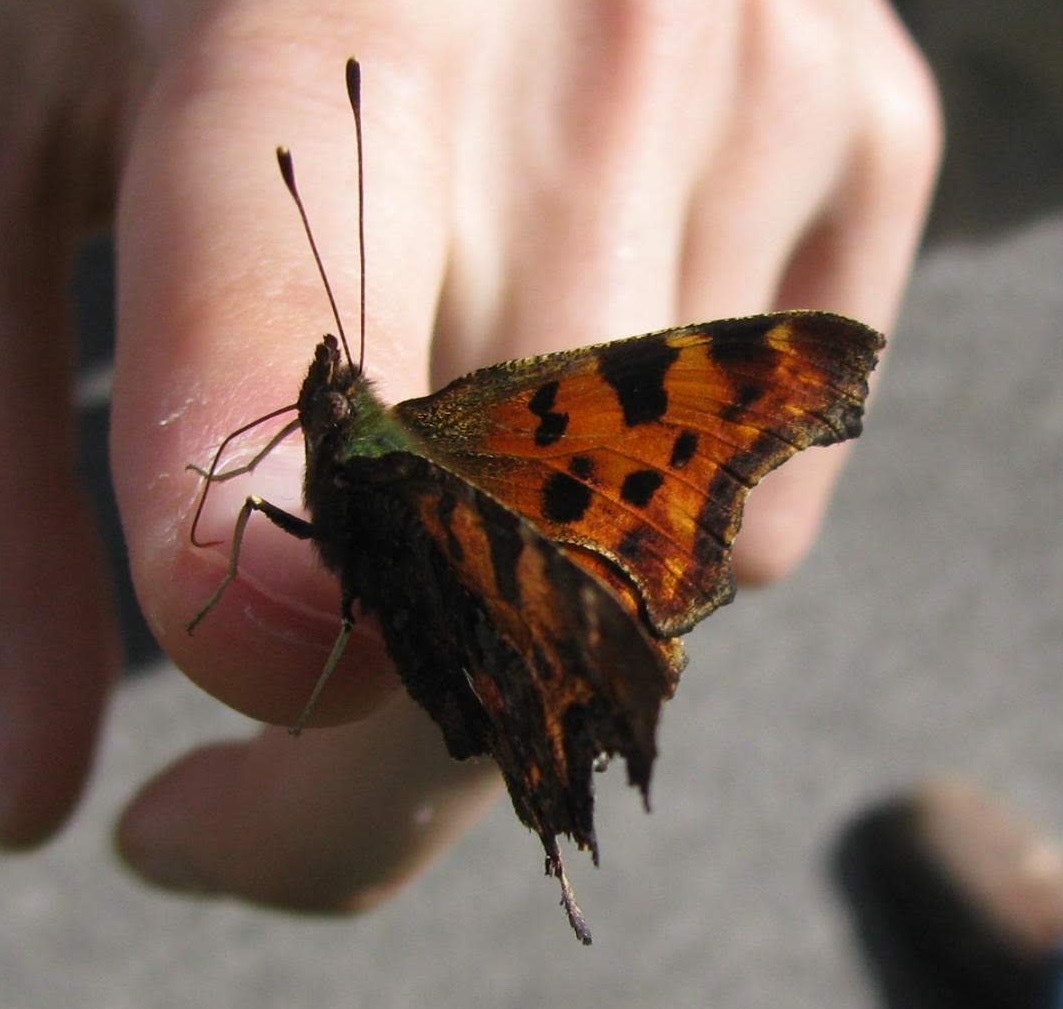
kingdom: Animalia
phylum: Arthropoda
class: Insecta
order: Lepidoptera
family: Nymphalidae
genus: Polygonia
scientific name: Polygonia c-album
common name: Comma
